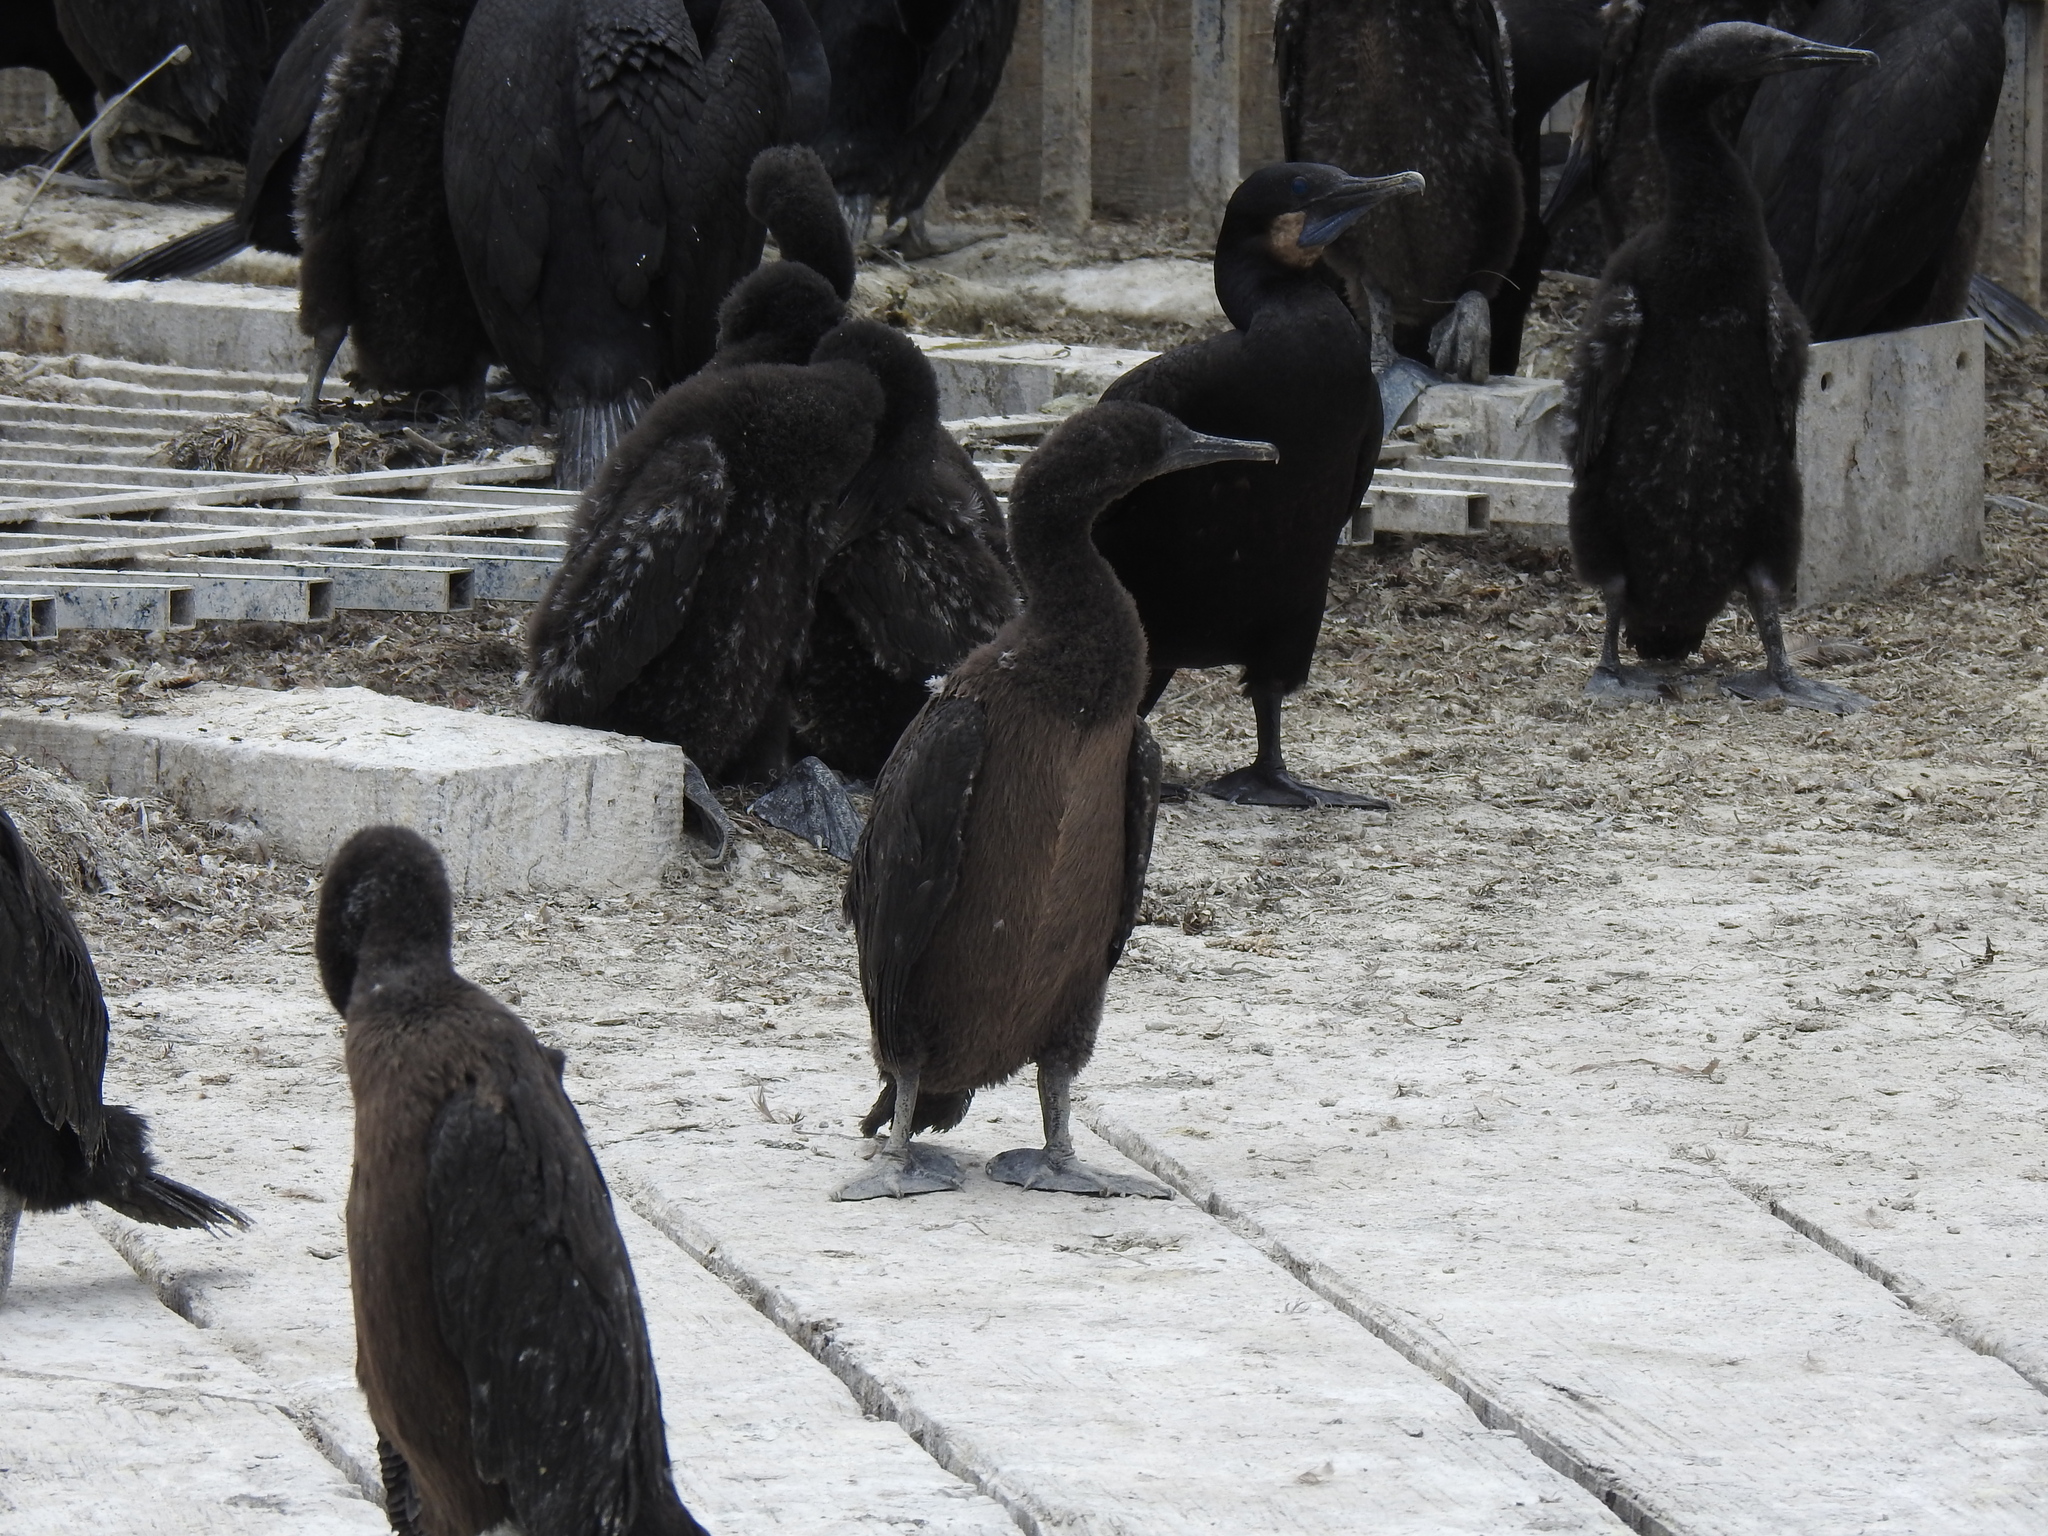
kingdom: Animalia
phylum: Chordata
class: Aves
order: Suliformes
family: Phalacrocoracidae
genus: Urile
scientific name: Urile penicillatus
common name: Brandt's cormorant
